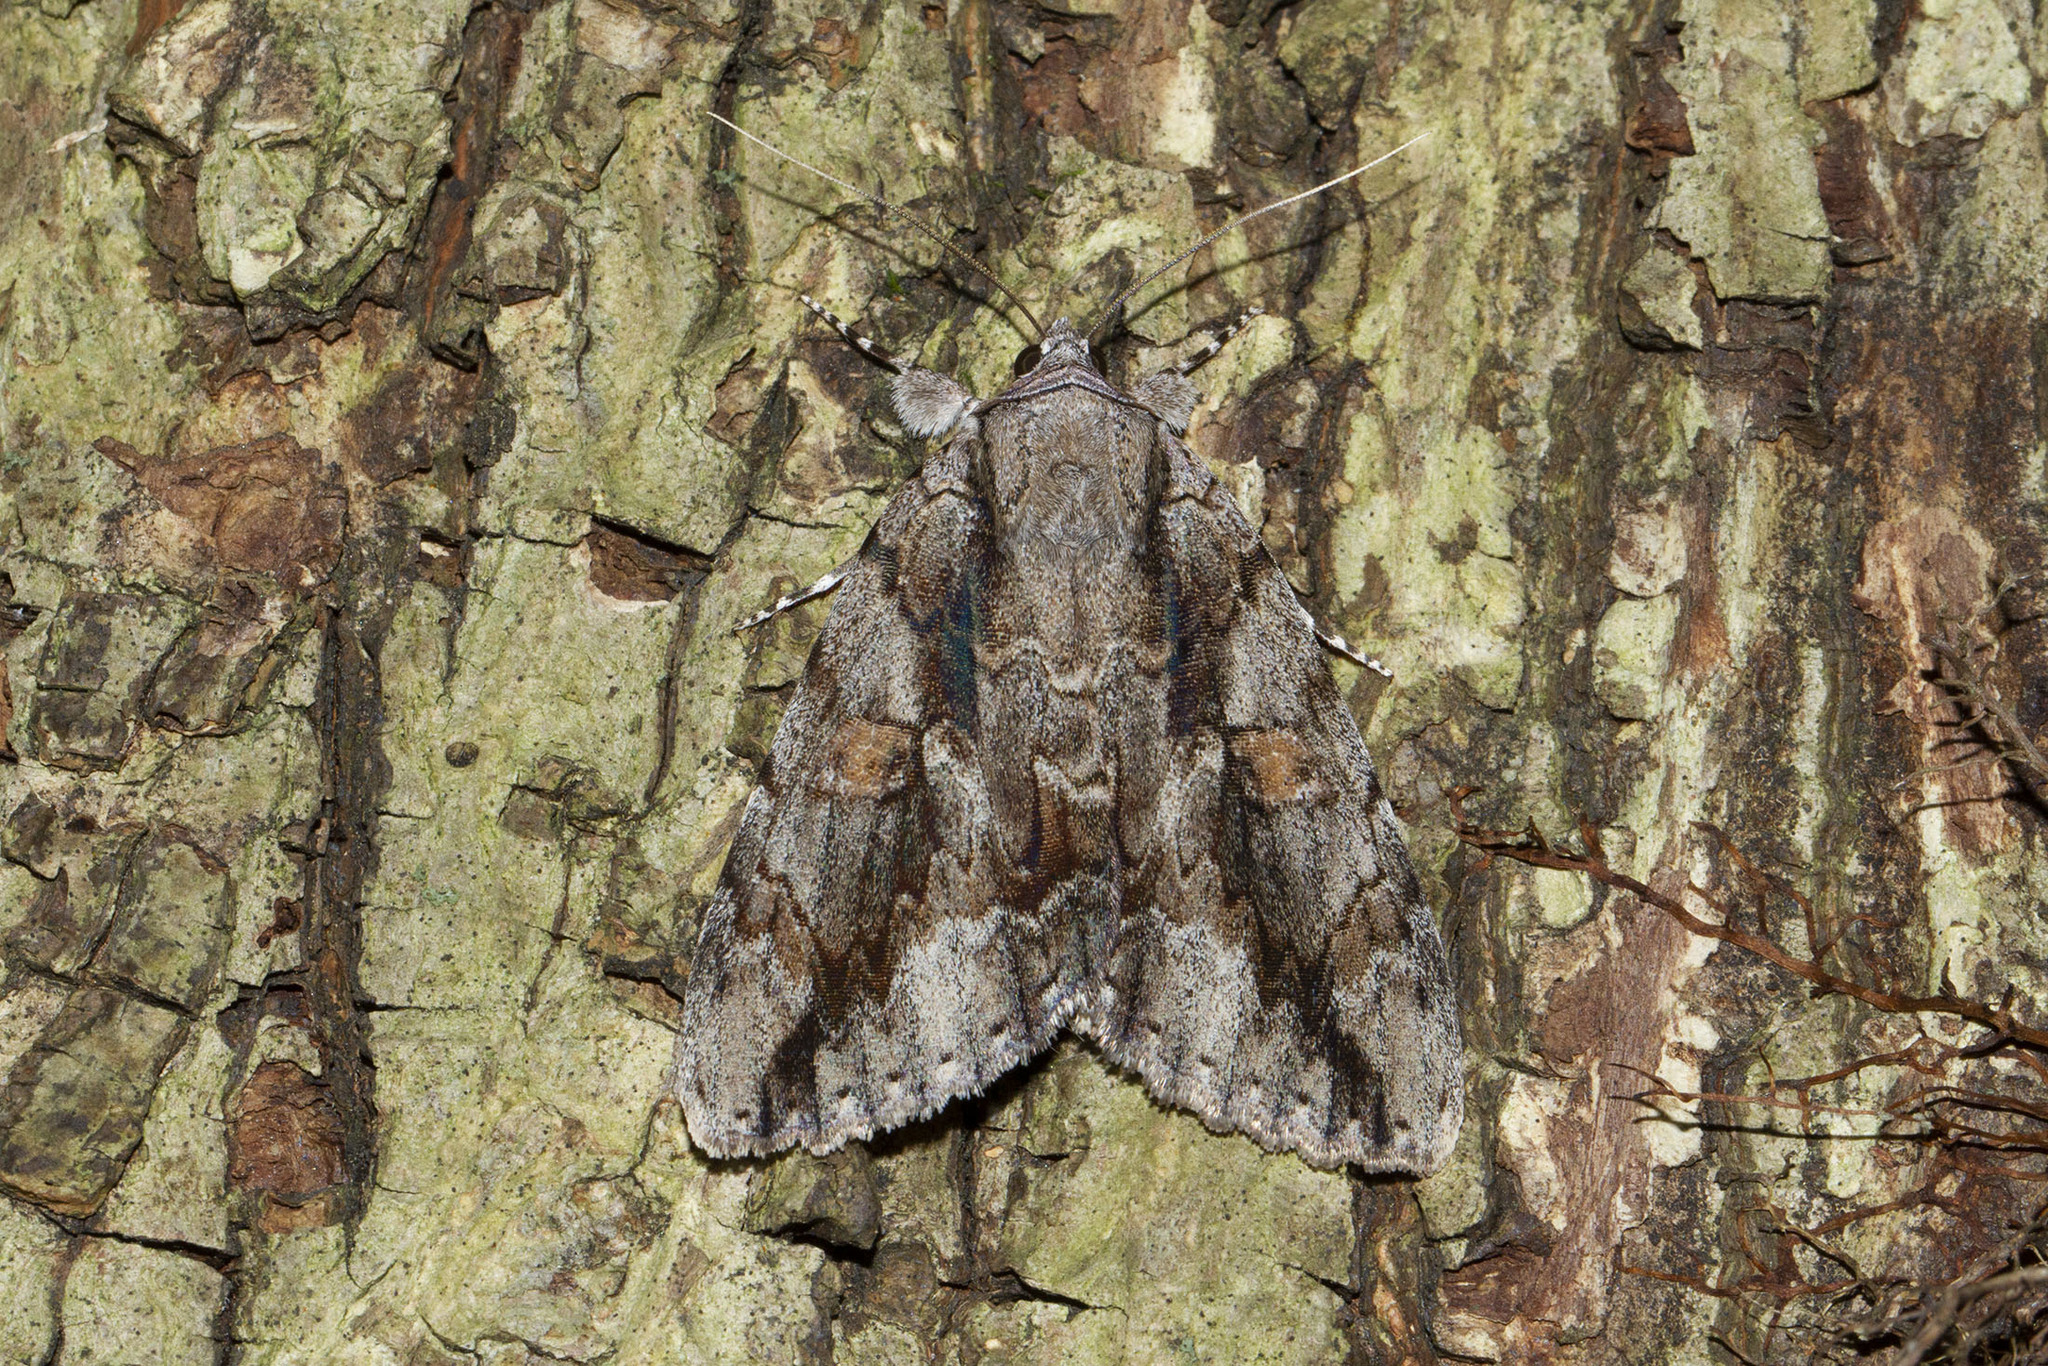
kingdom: Animalia
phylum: Arthropoda
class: Insecta
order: Lepidoptera
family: Erebidae
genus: Catocala
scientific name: Catocala flebilis
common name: Mournful underwing
